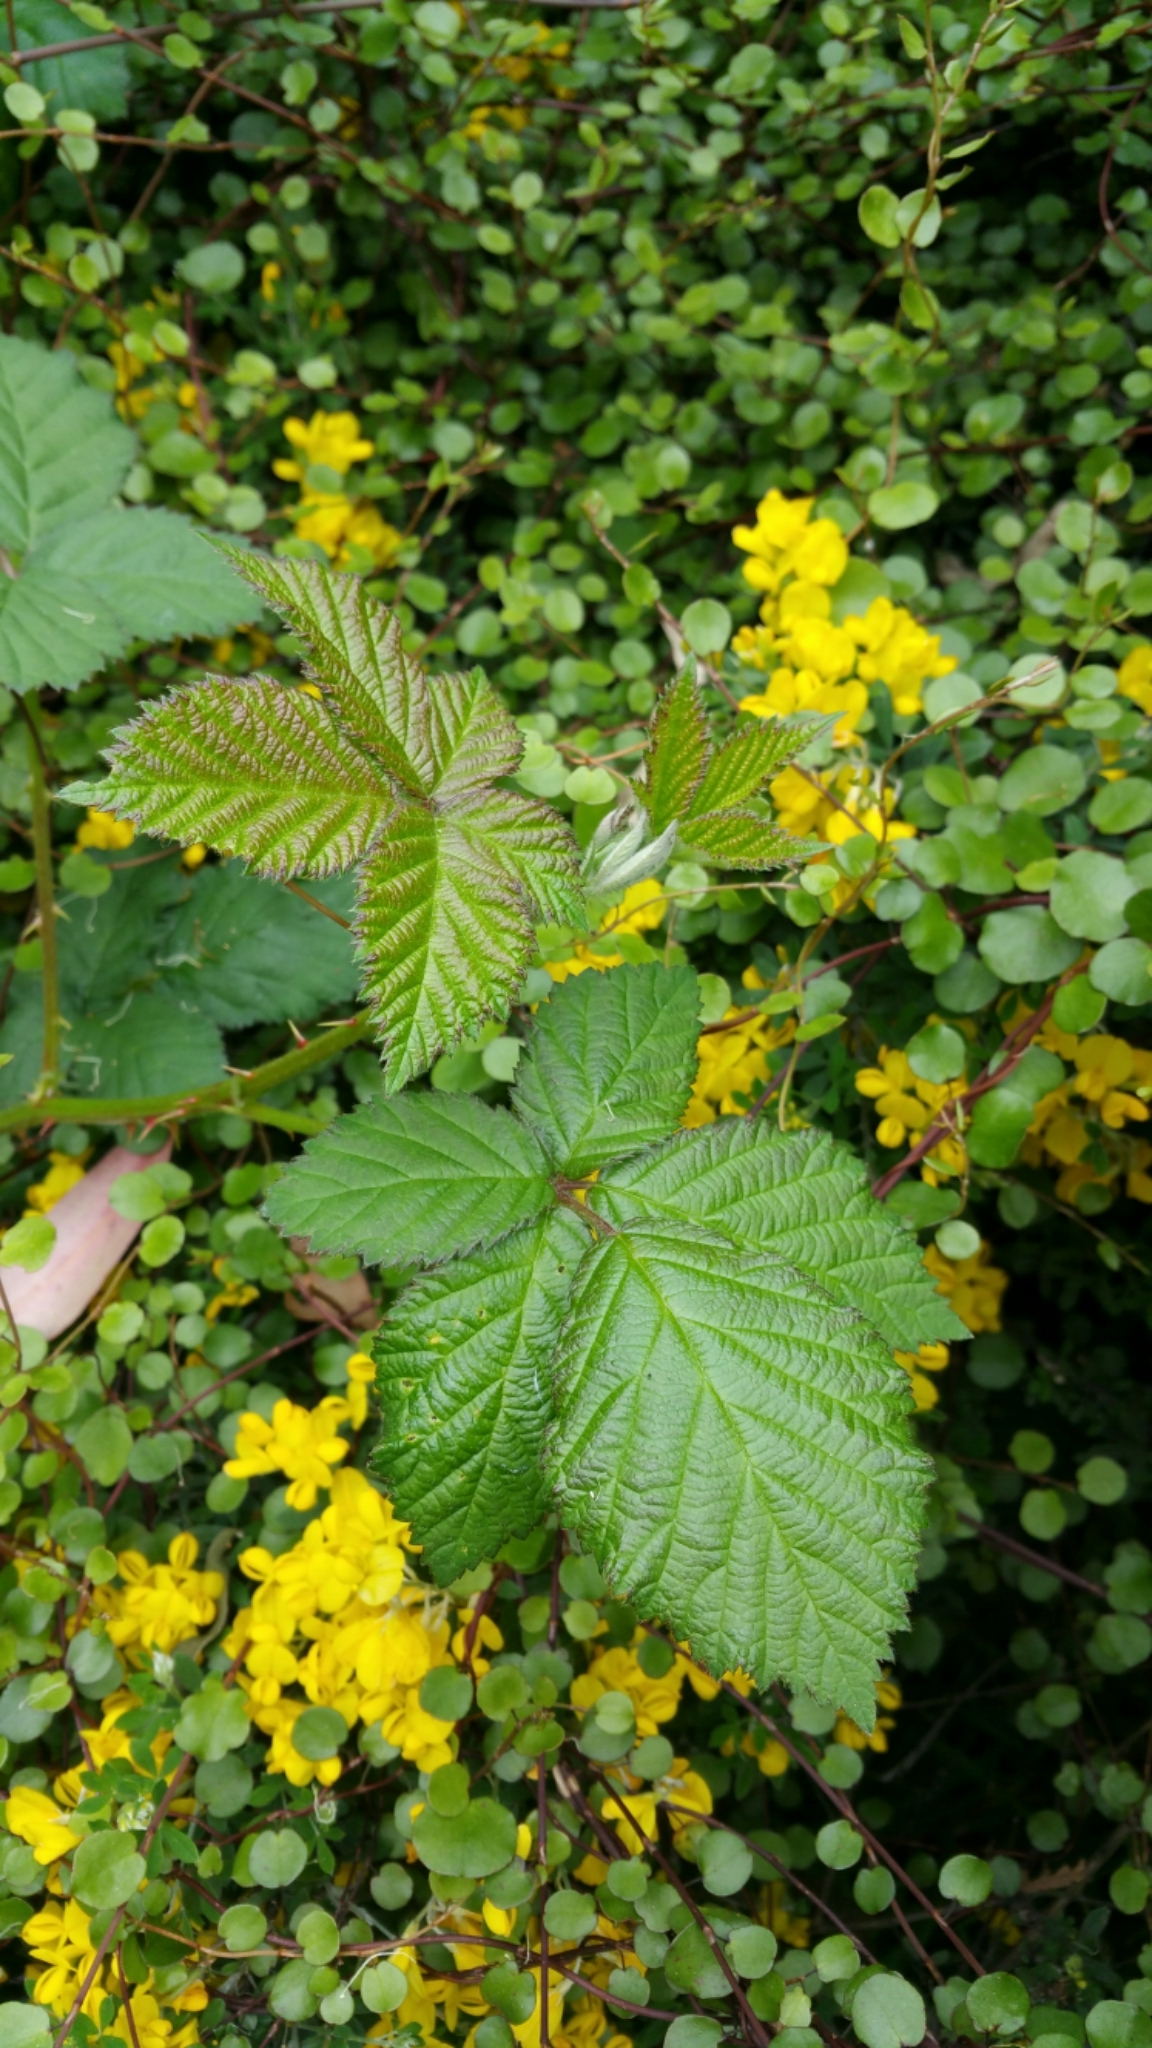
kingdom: Plantae
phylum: Tracheophyta
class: Magnoliopsida
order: Rosales
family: Rosaceae
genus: Rubus
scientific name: Rubus armeniacus
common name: Himalayan blackberry
